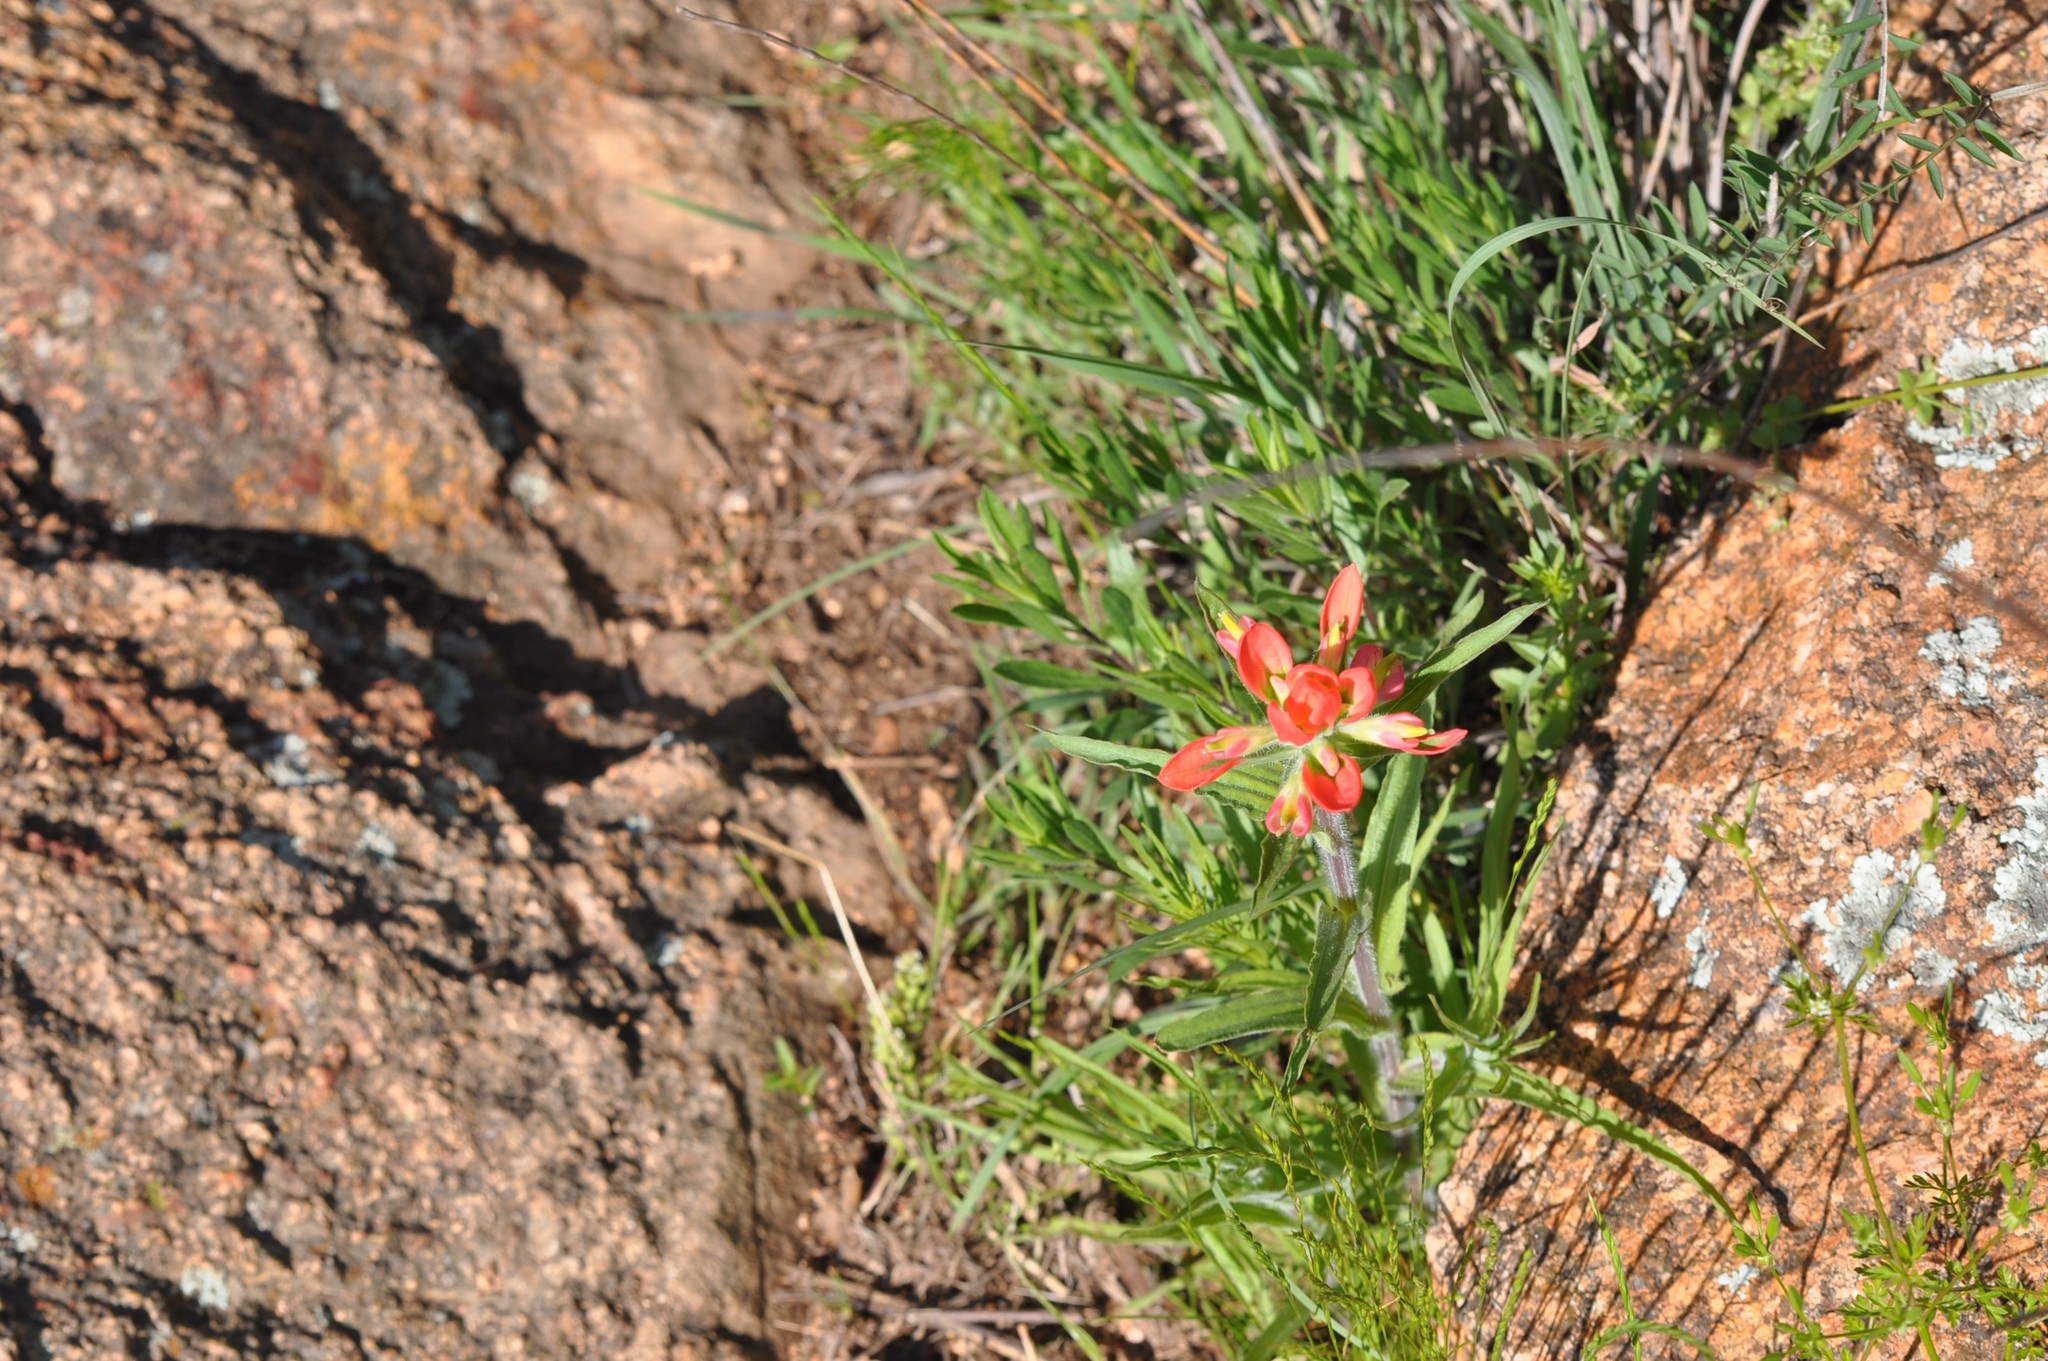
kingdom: Plantae
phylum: Tracheophyta
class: Magnoliopsida
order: Lamiales
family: Orobanchaceae
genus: Castilleja
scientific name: Castilleja indivisa
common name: Texas paintbrush
